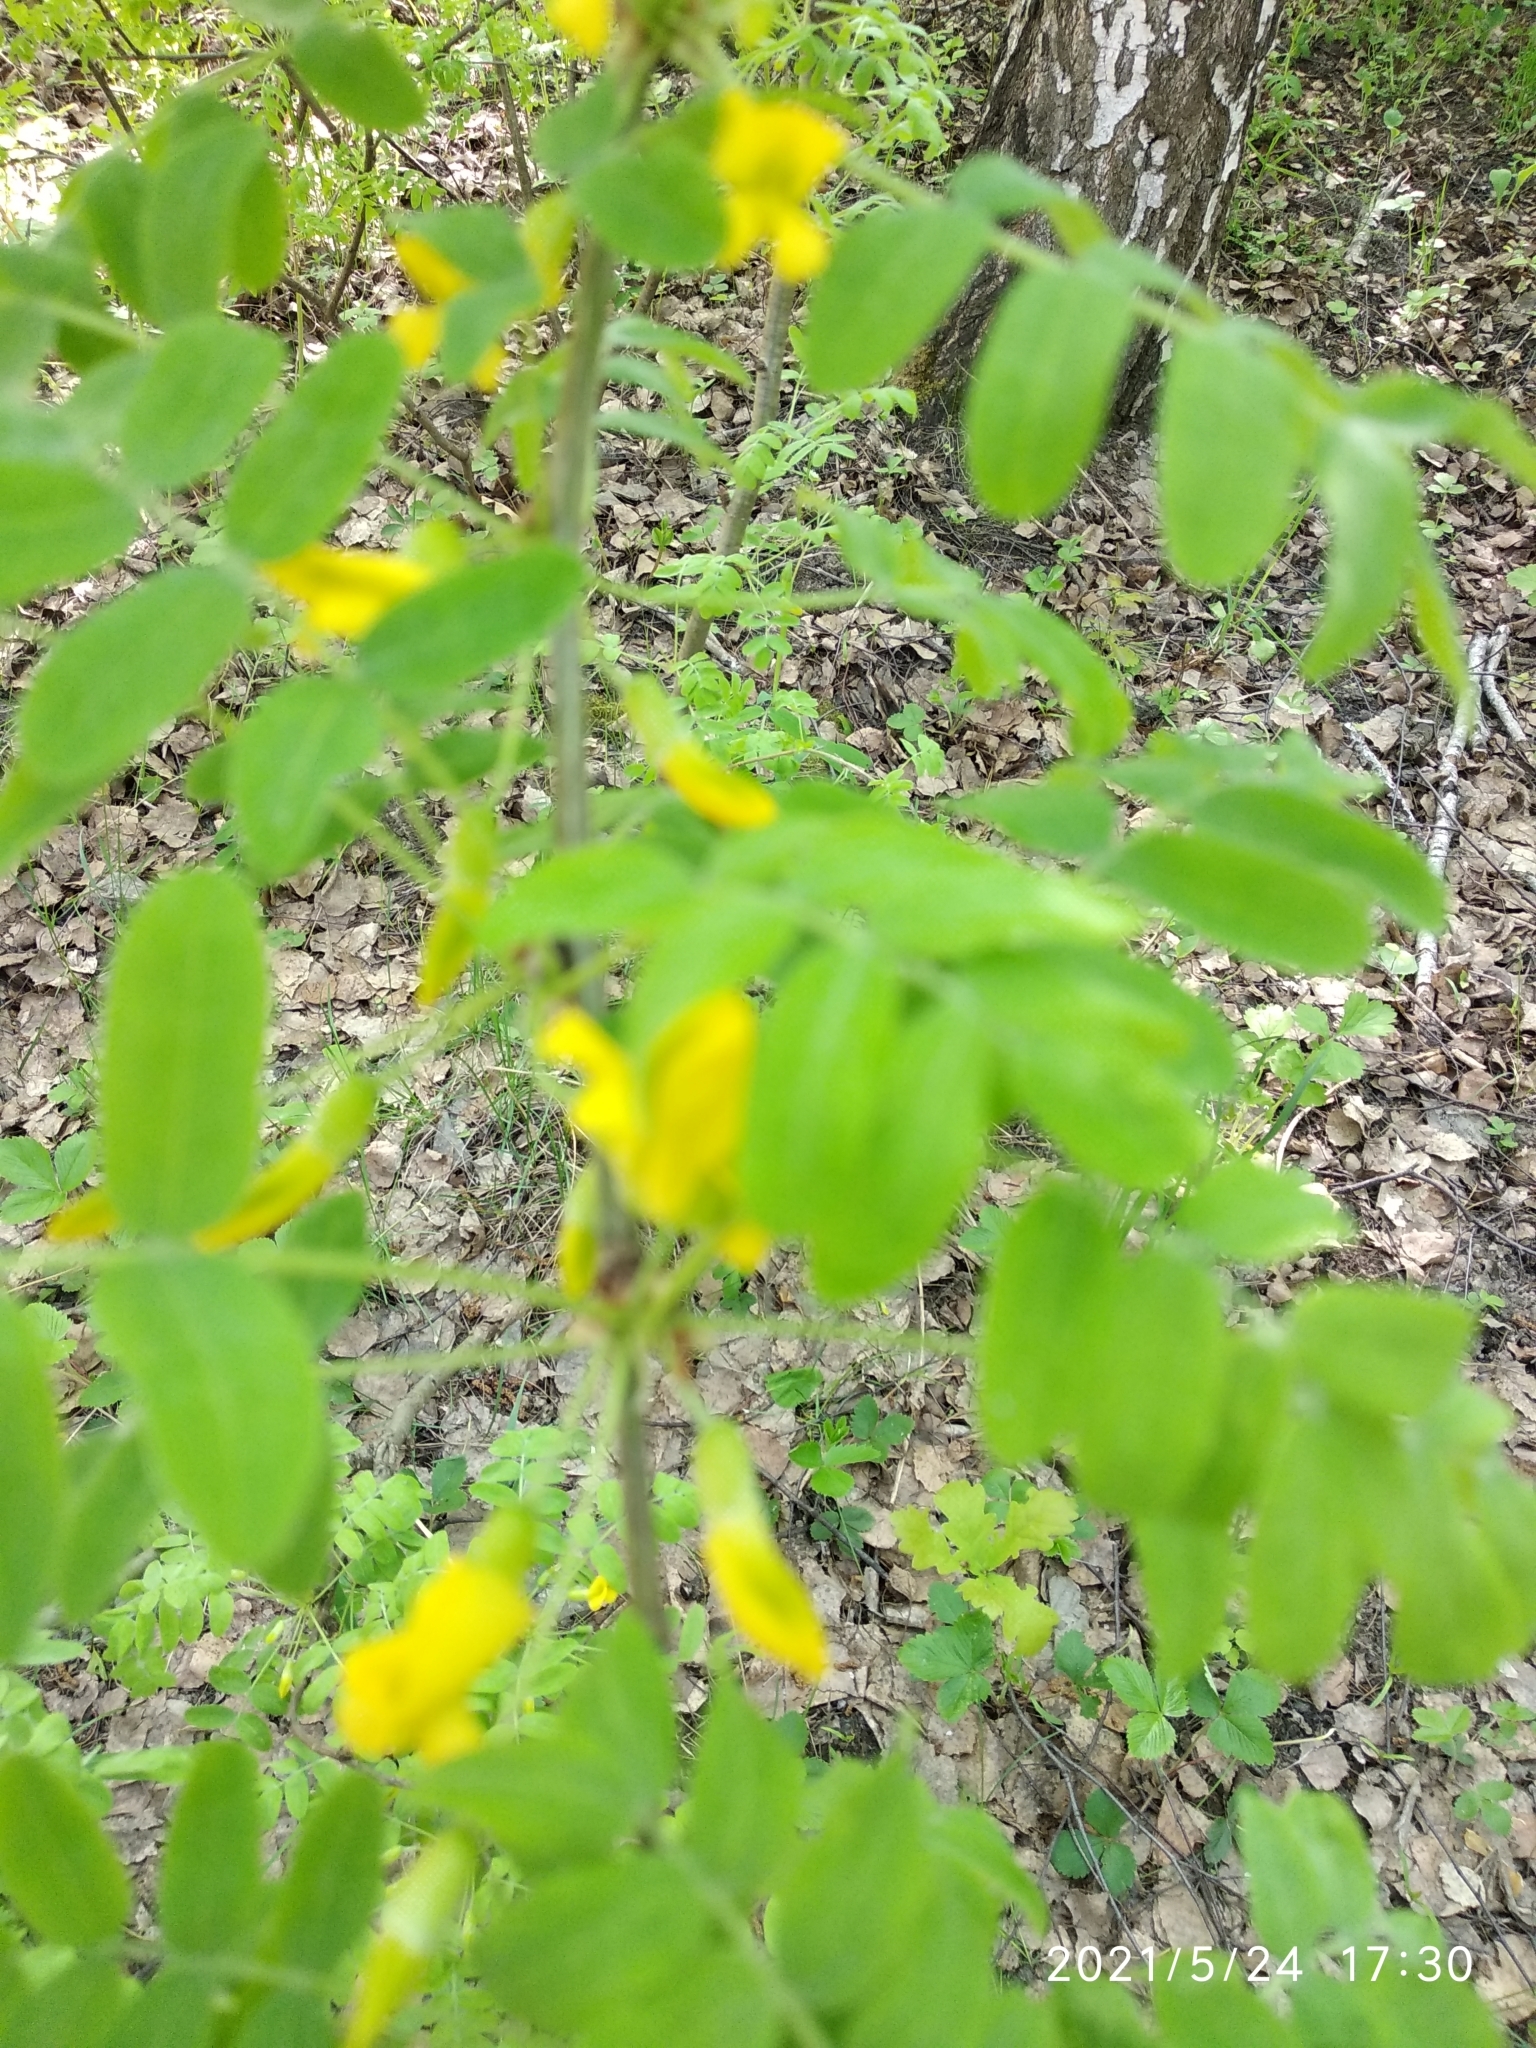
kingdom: Plantae
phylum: Tracheophyta
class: Magnoliopsida
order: Fabales
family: Fabaceae
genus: Caragana
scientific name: Caragana arborescens
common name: Siberian peashrub
